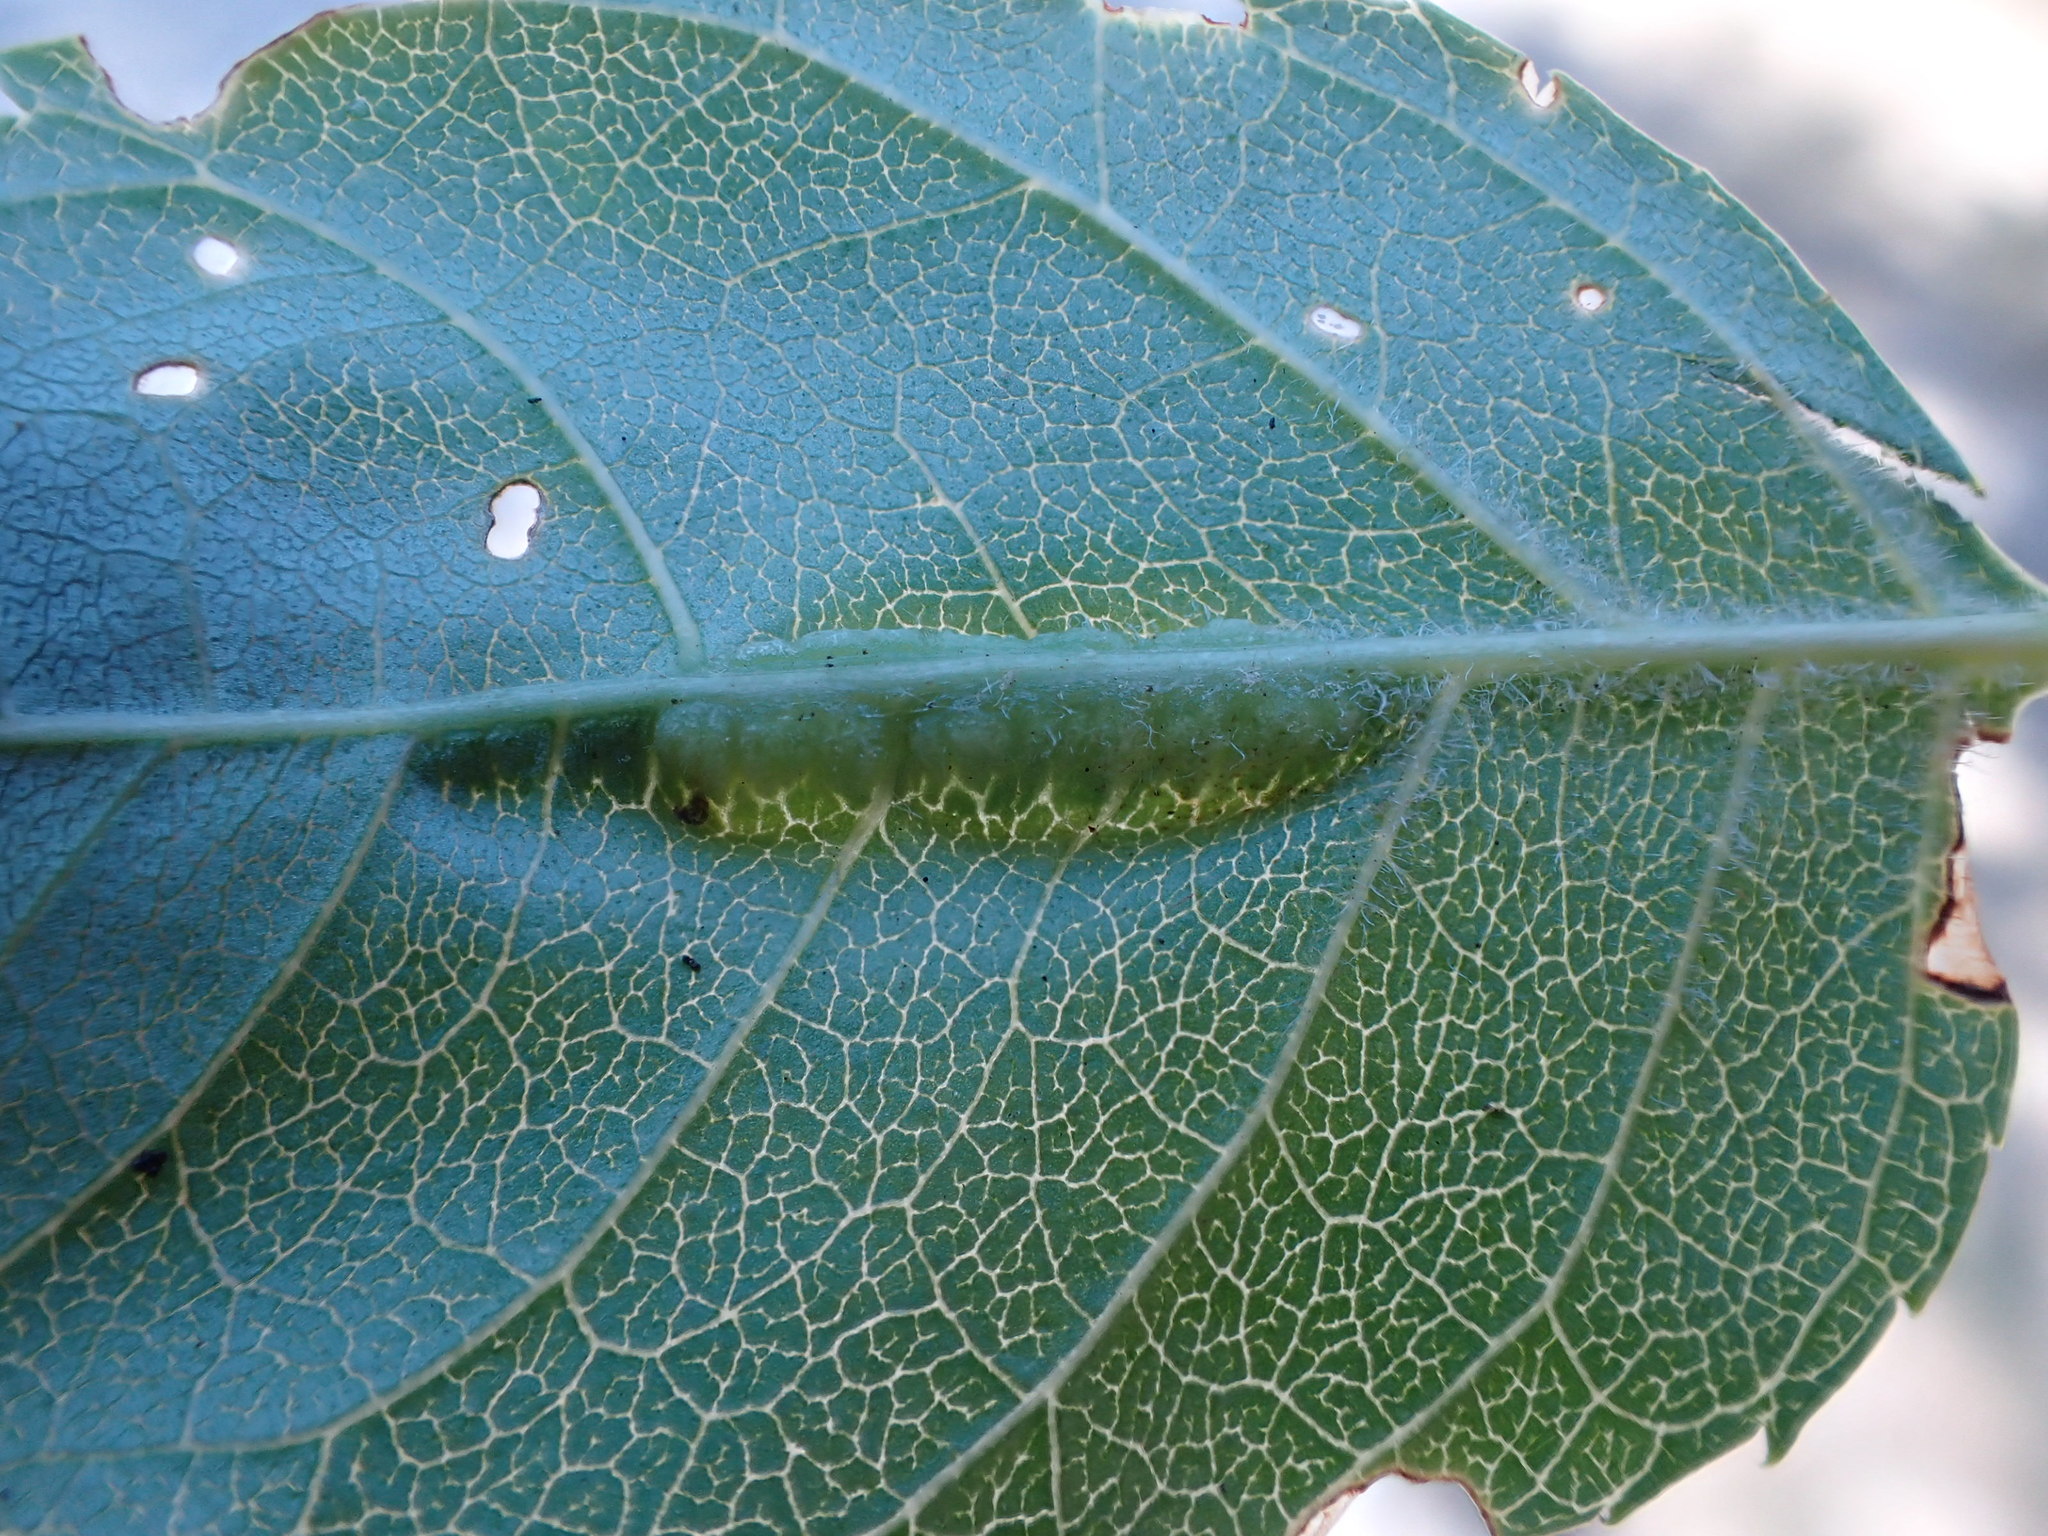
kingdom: Animalia
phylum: Arthropoda
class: Insecta
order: Diptera
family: Cecidomyiidae
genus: Dasineura
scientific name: Dasineura fraxini
